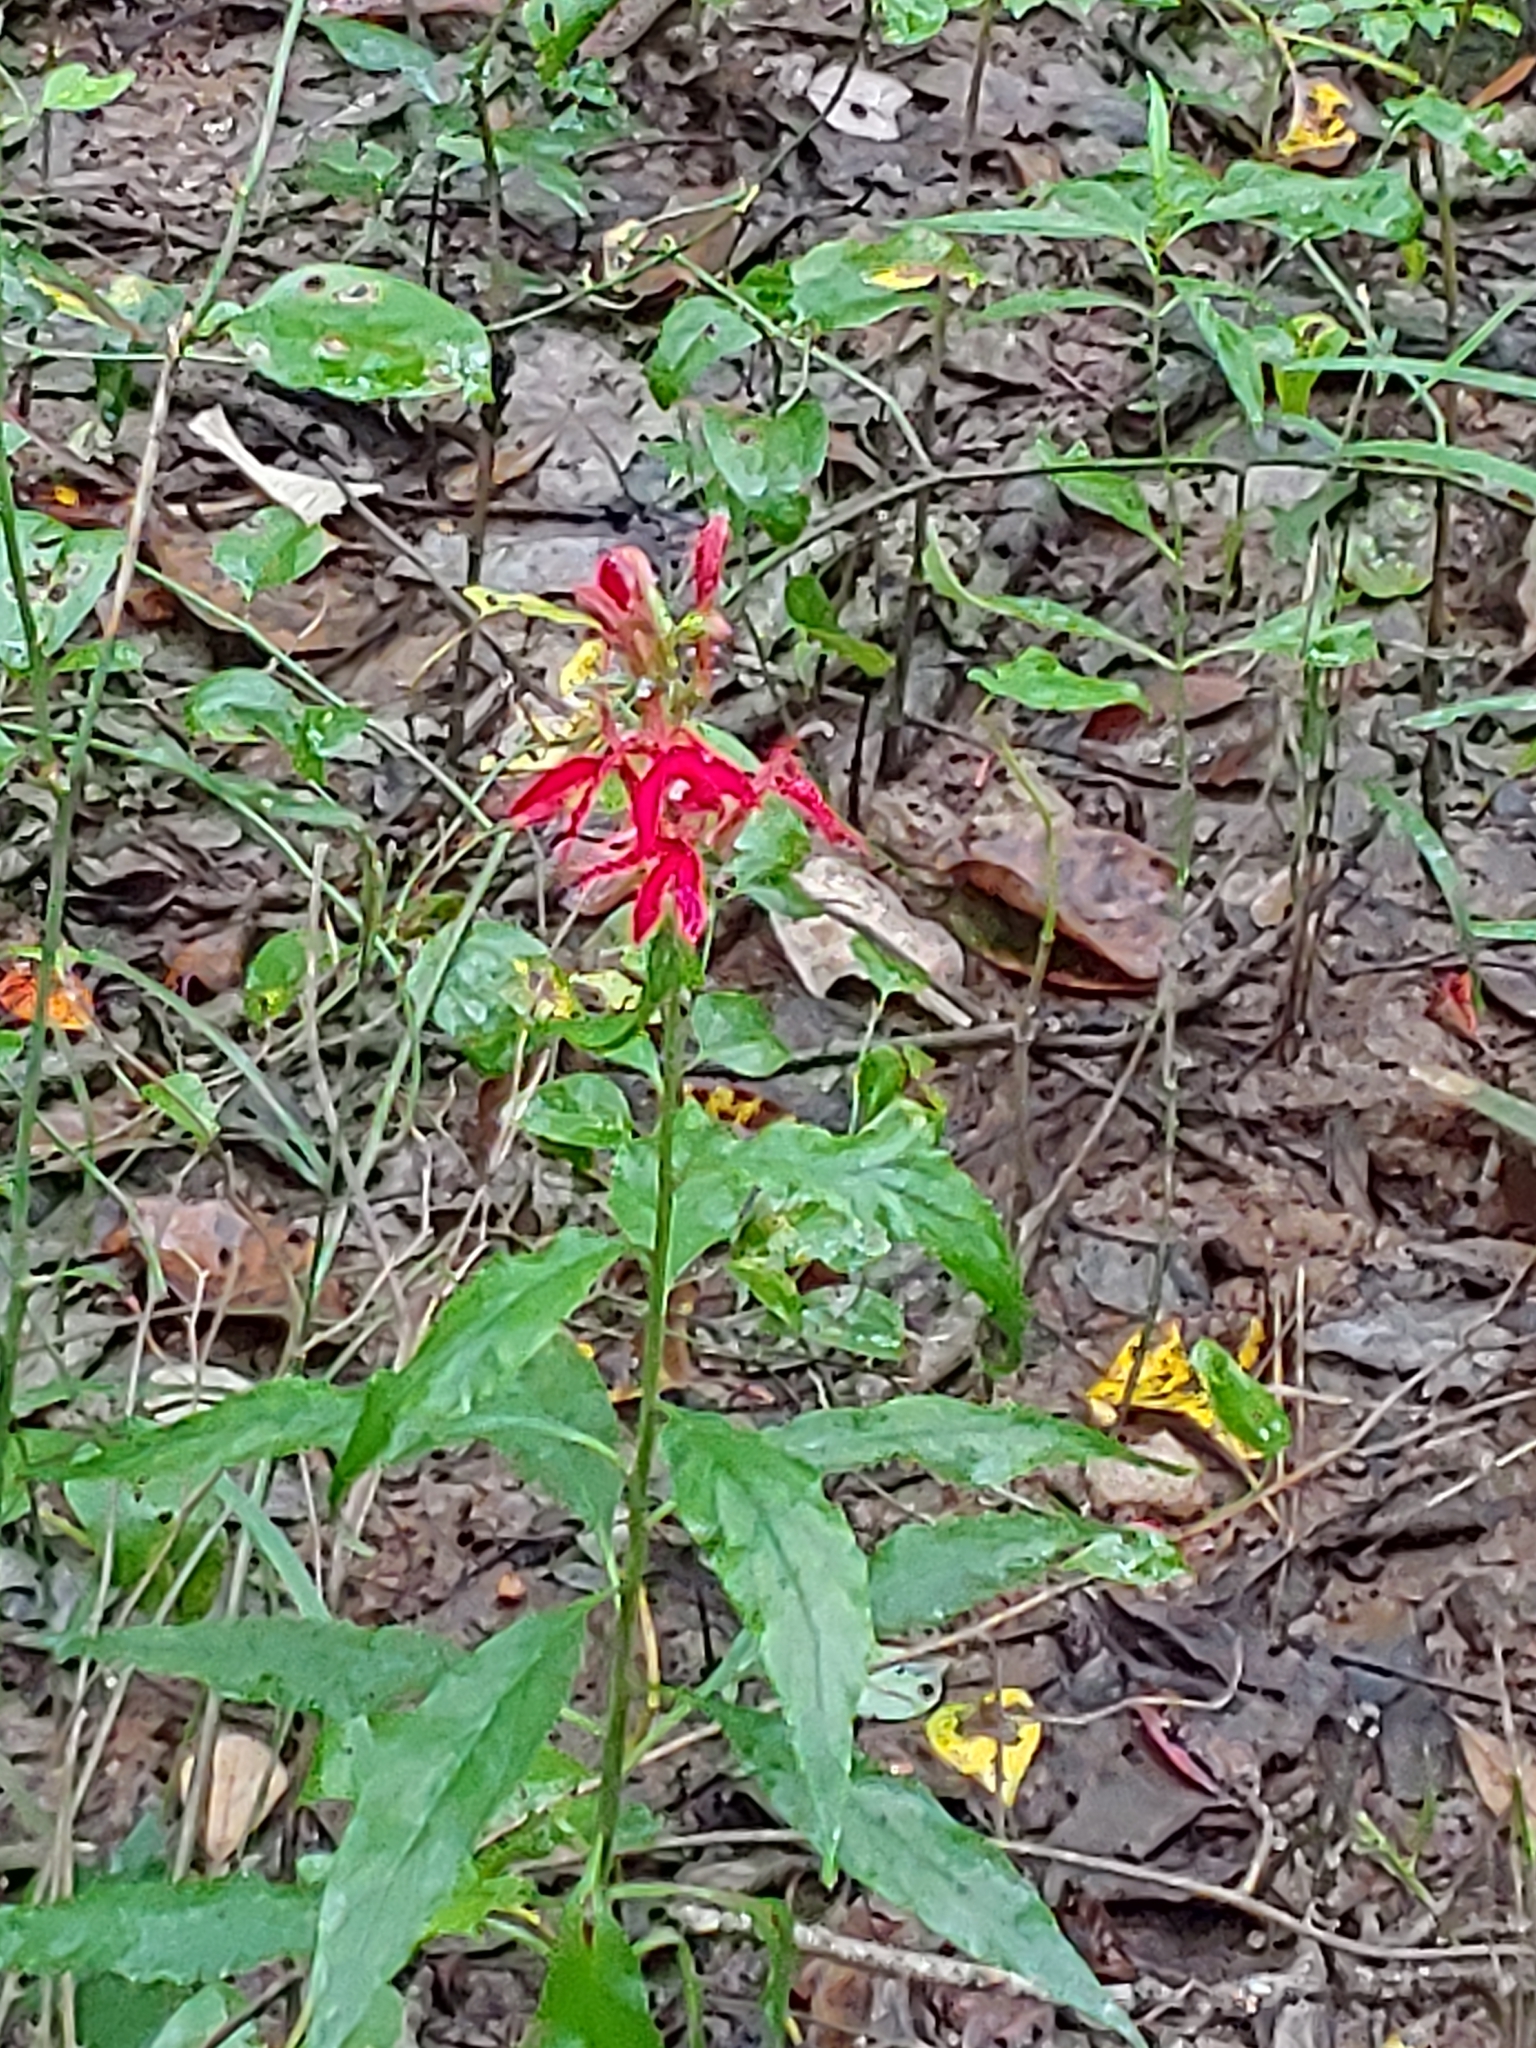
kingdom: Plantae
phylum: Tracheophyta
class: Magnoliopsida
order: Asterales
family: Campanulaceae
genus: Lobelia
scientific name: Lobelia cardinalis
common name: Cardinal flower
